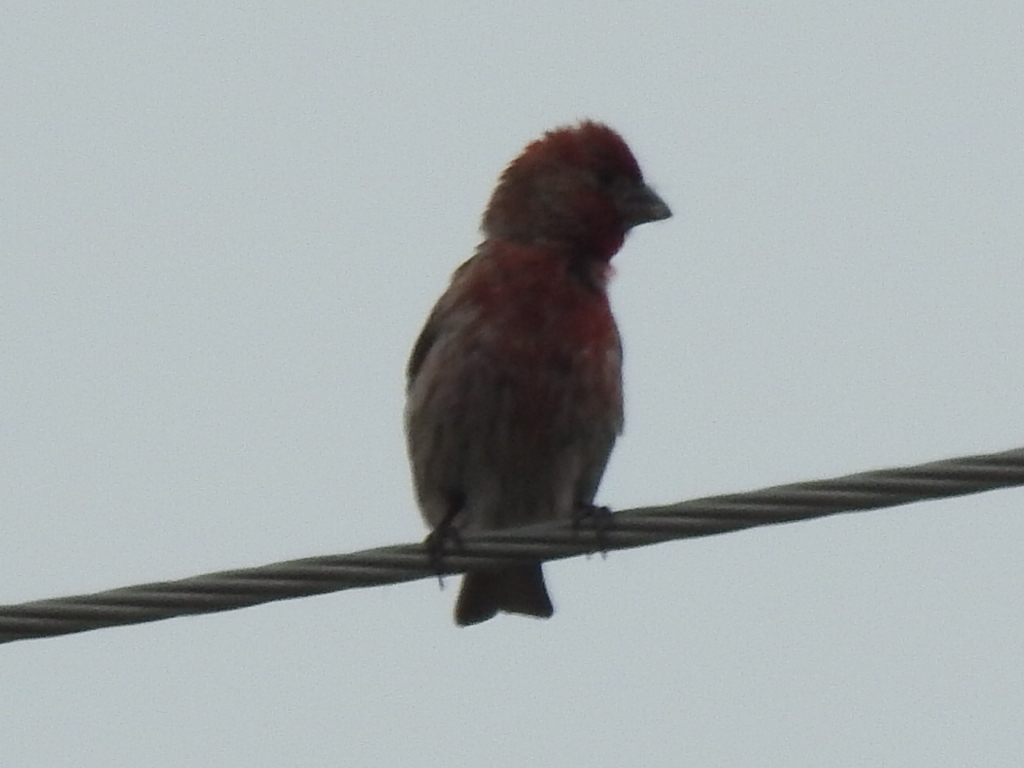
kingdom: Animalia
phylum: Chordata
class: Aves
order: Passeriformes
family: Fringillidae
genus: Haemorhous
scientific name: Haemorhous mexicanus
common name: House finch
